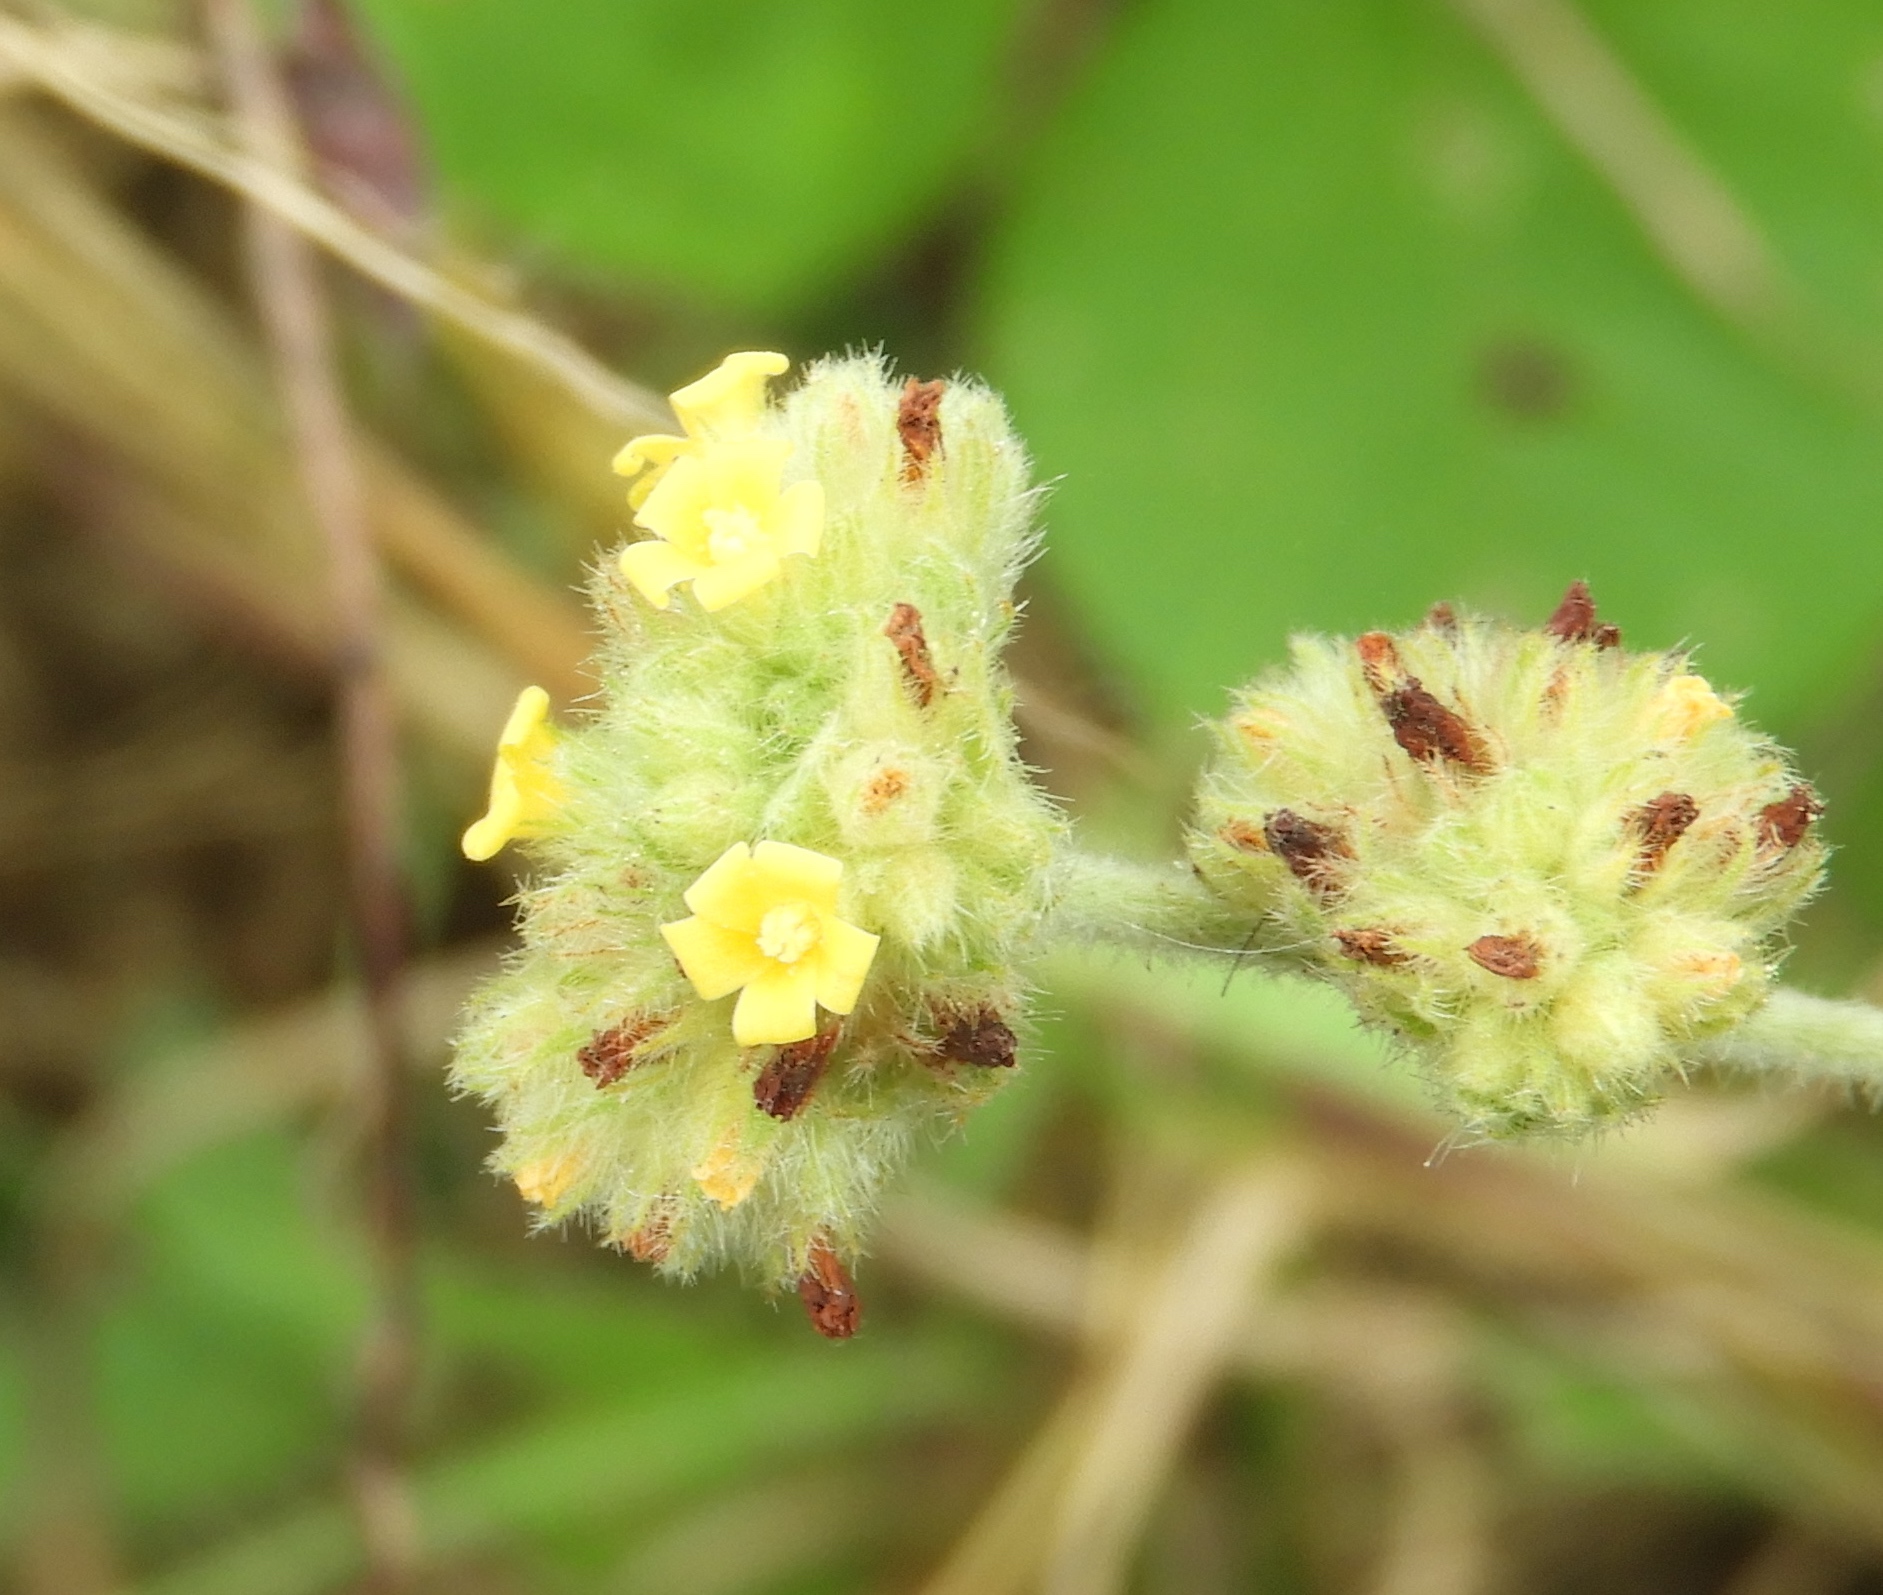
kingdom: Plantae
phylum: Tracheophyta
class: Magnoliopsida
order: Malvales
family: Malvaceae
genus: Waltheria
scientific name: Waltheria indica
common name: Leather-coat
